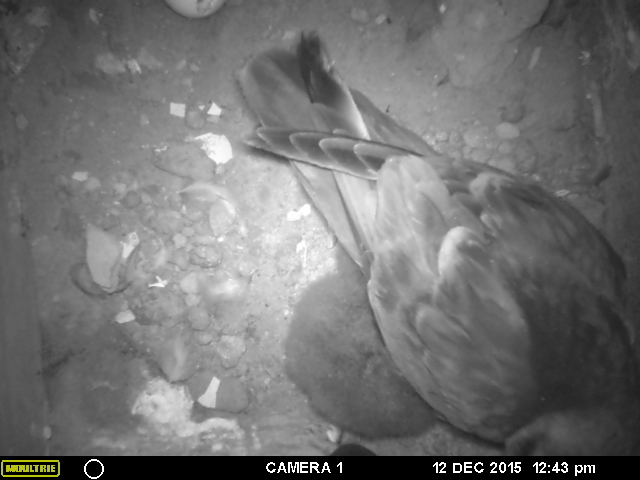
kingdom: Animalia
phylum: Chordata
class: Aves
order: Procellariiformes
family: Procellariidae
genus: Pachyptila
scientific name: Pachyptila turtur
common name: Fairy prion
